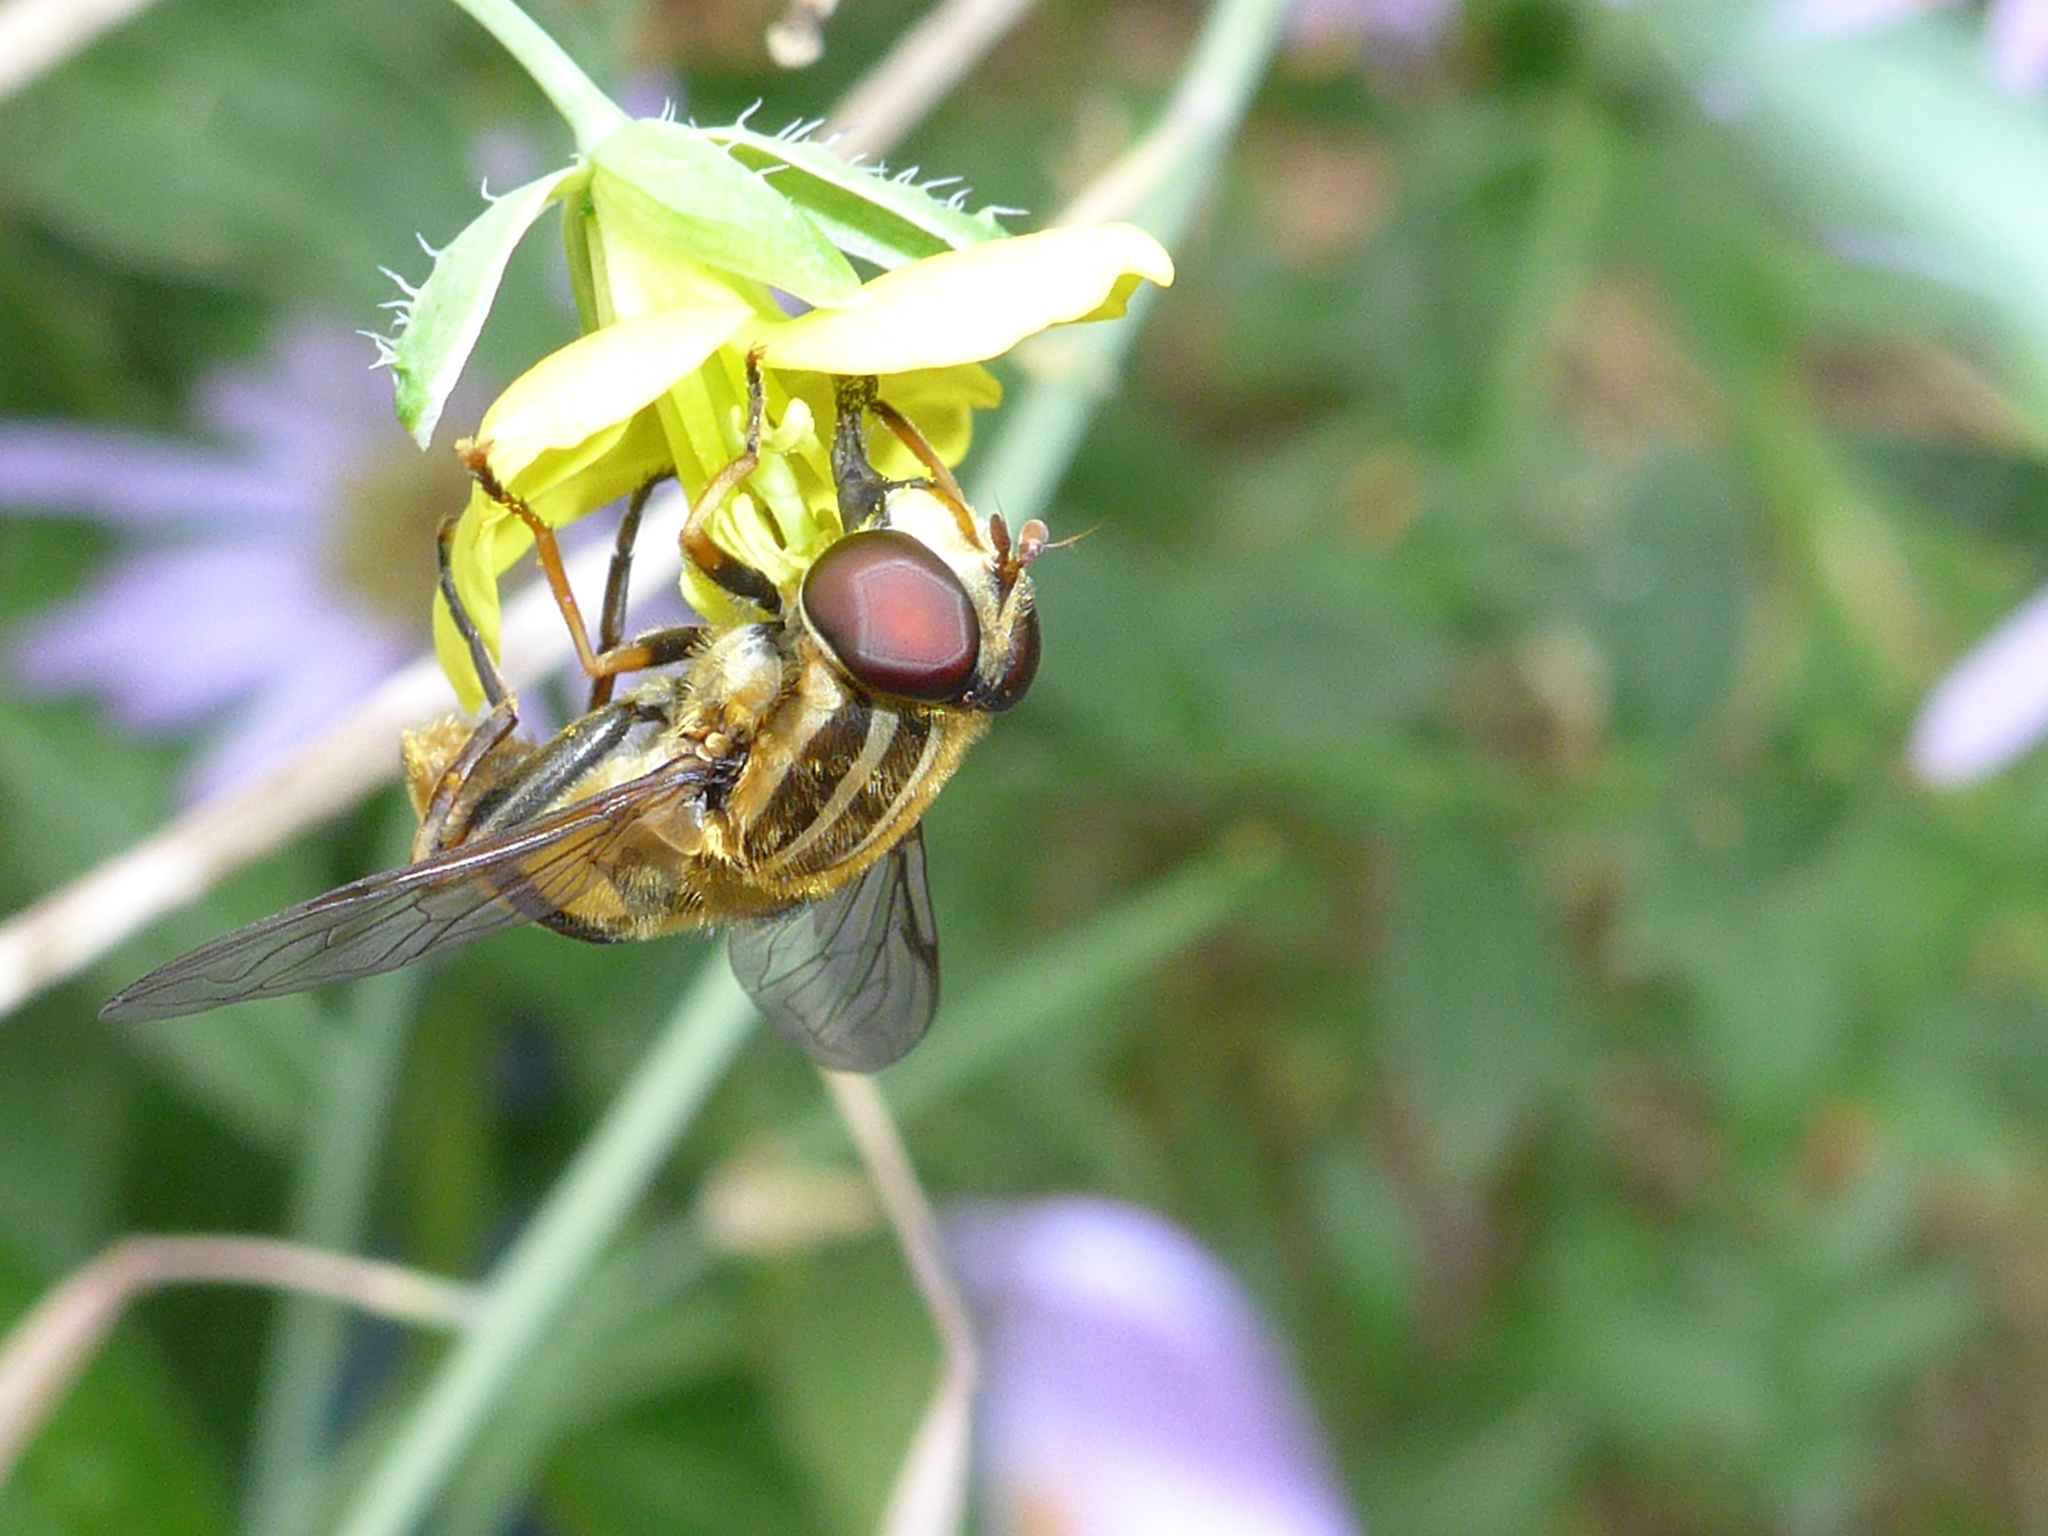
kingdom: Animalia
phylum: Arthropoda
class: Insecta
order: Diptera
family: Syrphidae
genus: Helophilus
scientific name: Helophilus fasciatus
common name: Narrow-headed marsh fly
